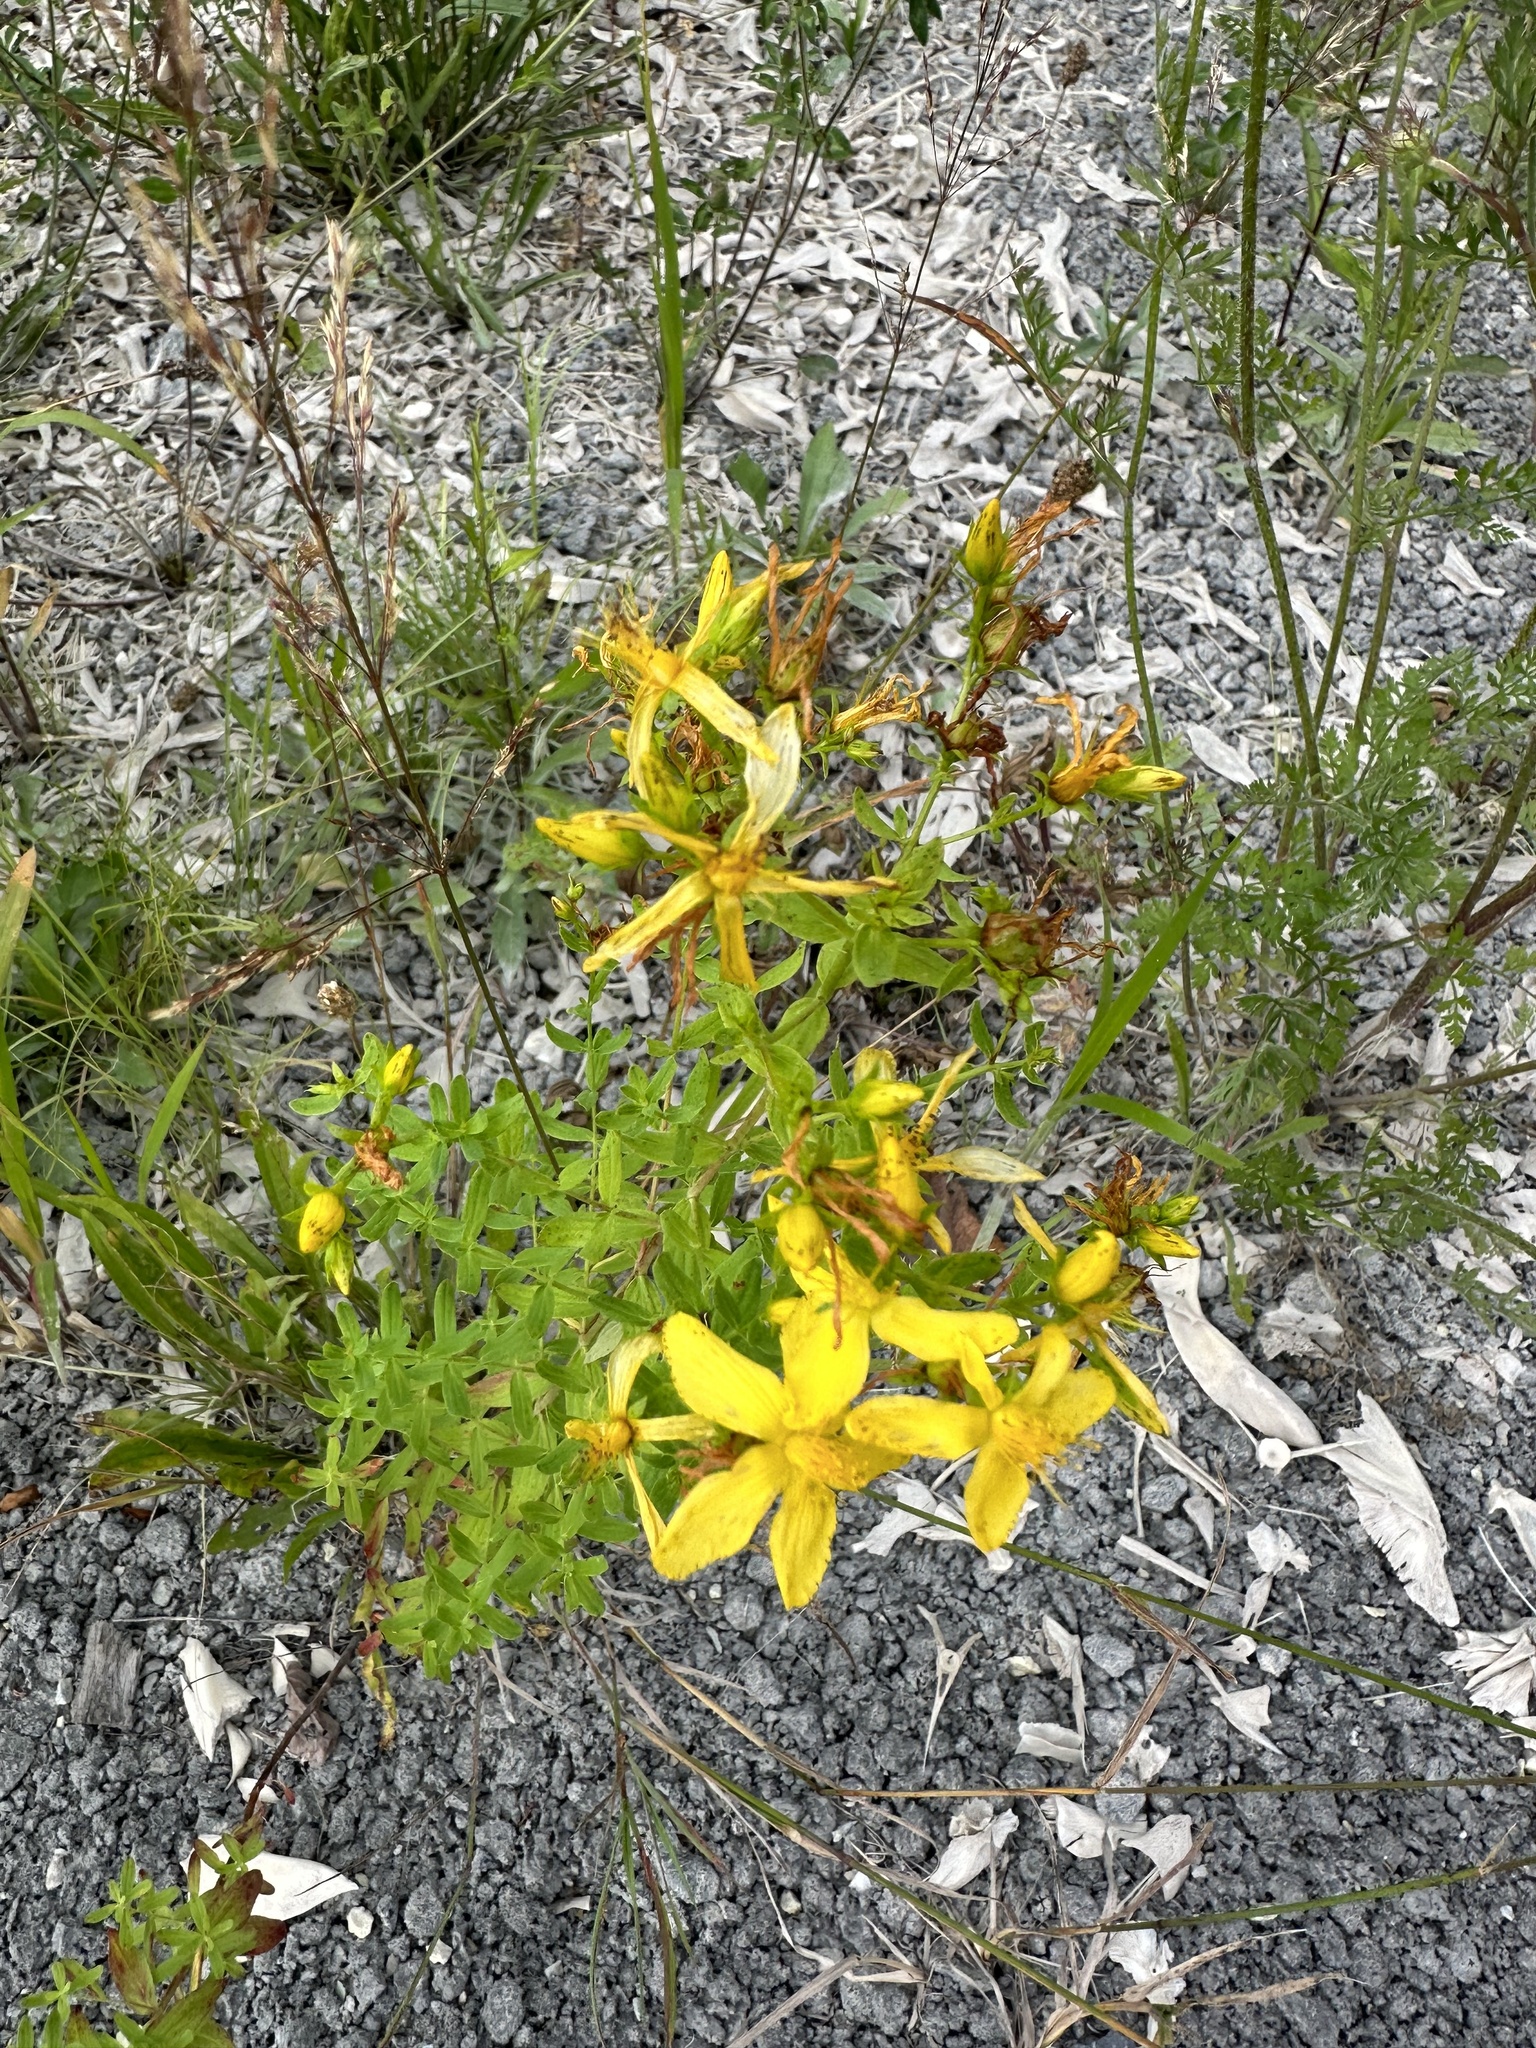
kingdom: Plantae
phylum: Tracheophyta
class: Magnoliopsida
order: Malpighiales
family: Hypericaceae
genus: Hypericum
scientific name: Hypericum perforatum
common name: Common st. johnswort
